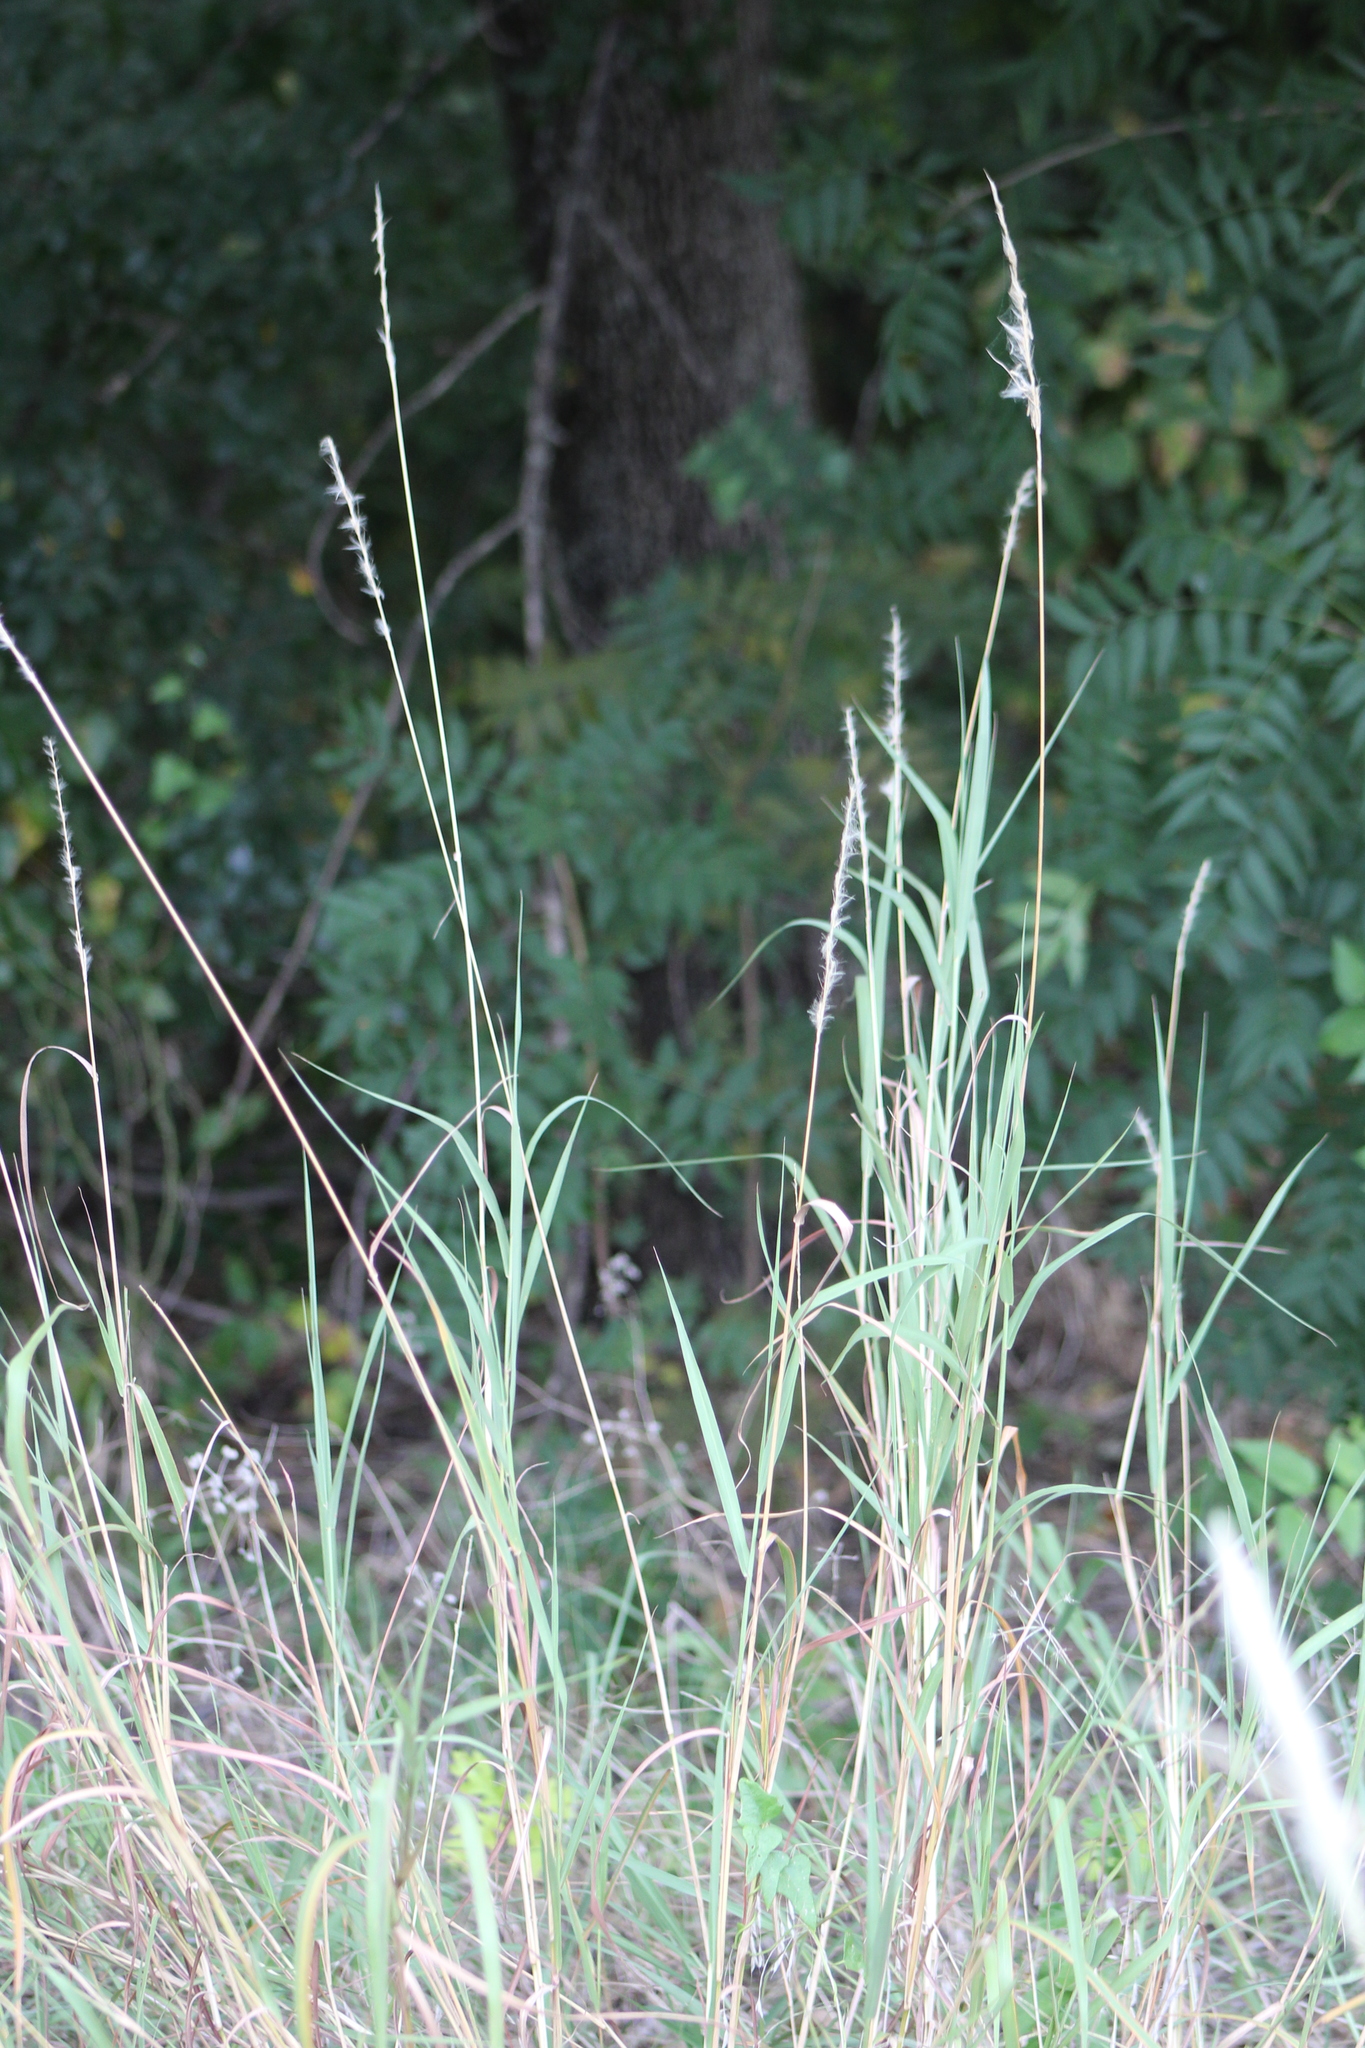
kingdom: Plantae
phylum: Tracheophyta
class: Liliopsida
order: Poales
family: Poaceae
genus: Bothriochloa
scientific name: Bothriochloa torreyana
